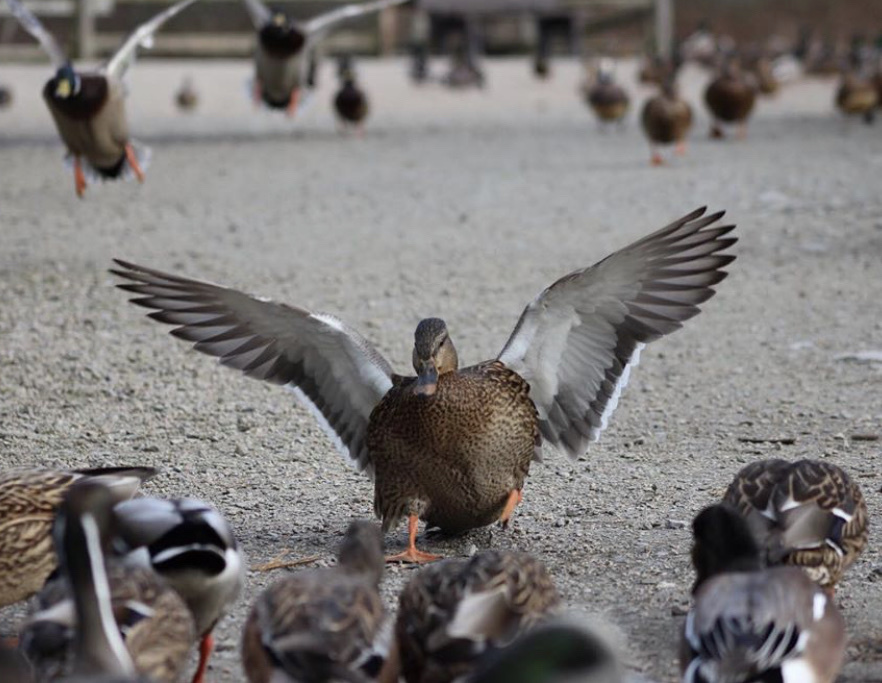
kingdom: Animalia
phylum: Chordata
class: Aves
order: Anseriformes
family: Anatidae
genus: Anas
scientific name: Anas platyrhynchos
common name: Mallard
